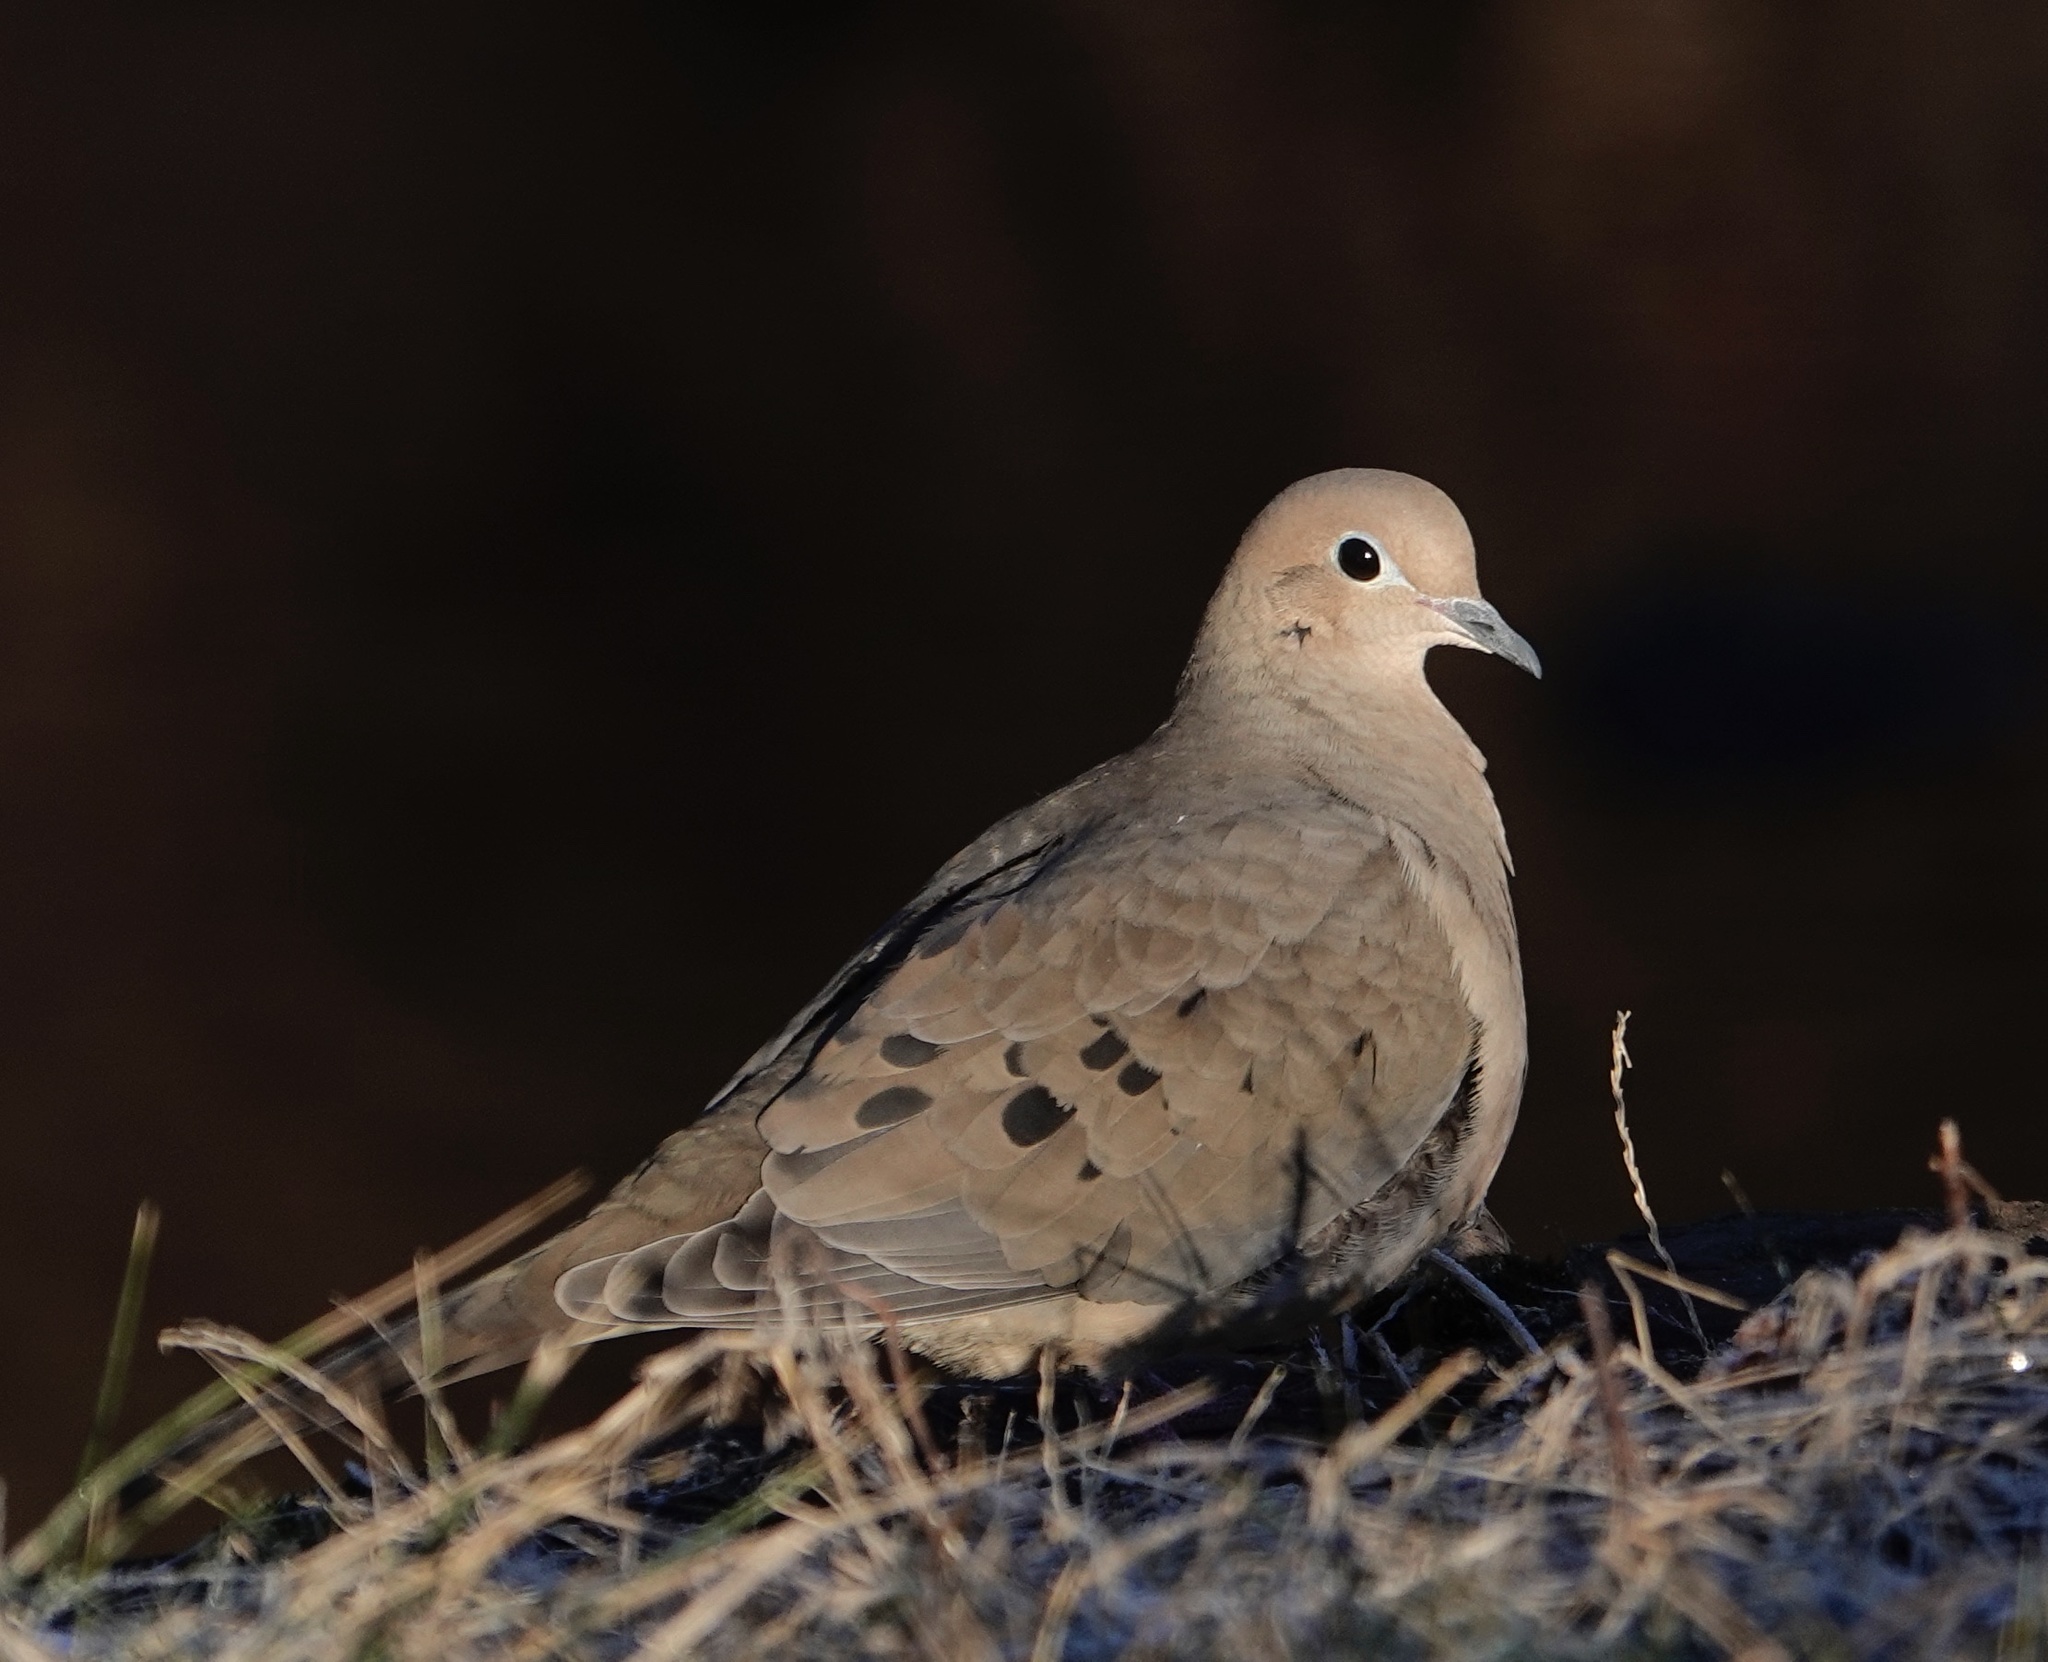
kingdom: Animalia
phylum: Chordata
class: Aves
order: Columbiformes
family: Columbidae
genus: Zenaida
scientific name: Zenaida macroura
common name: Mourning dove
